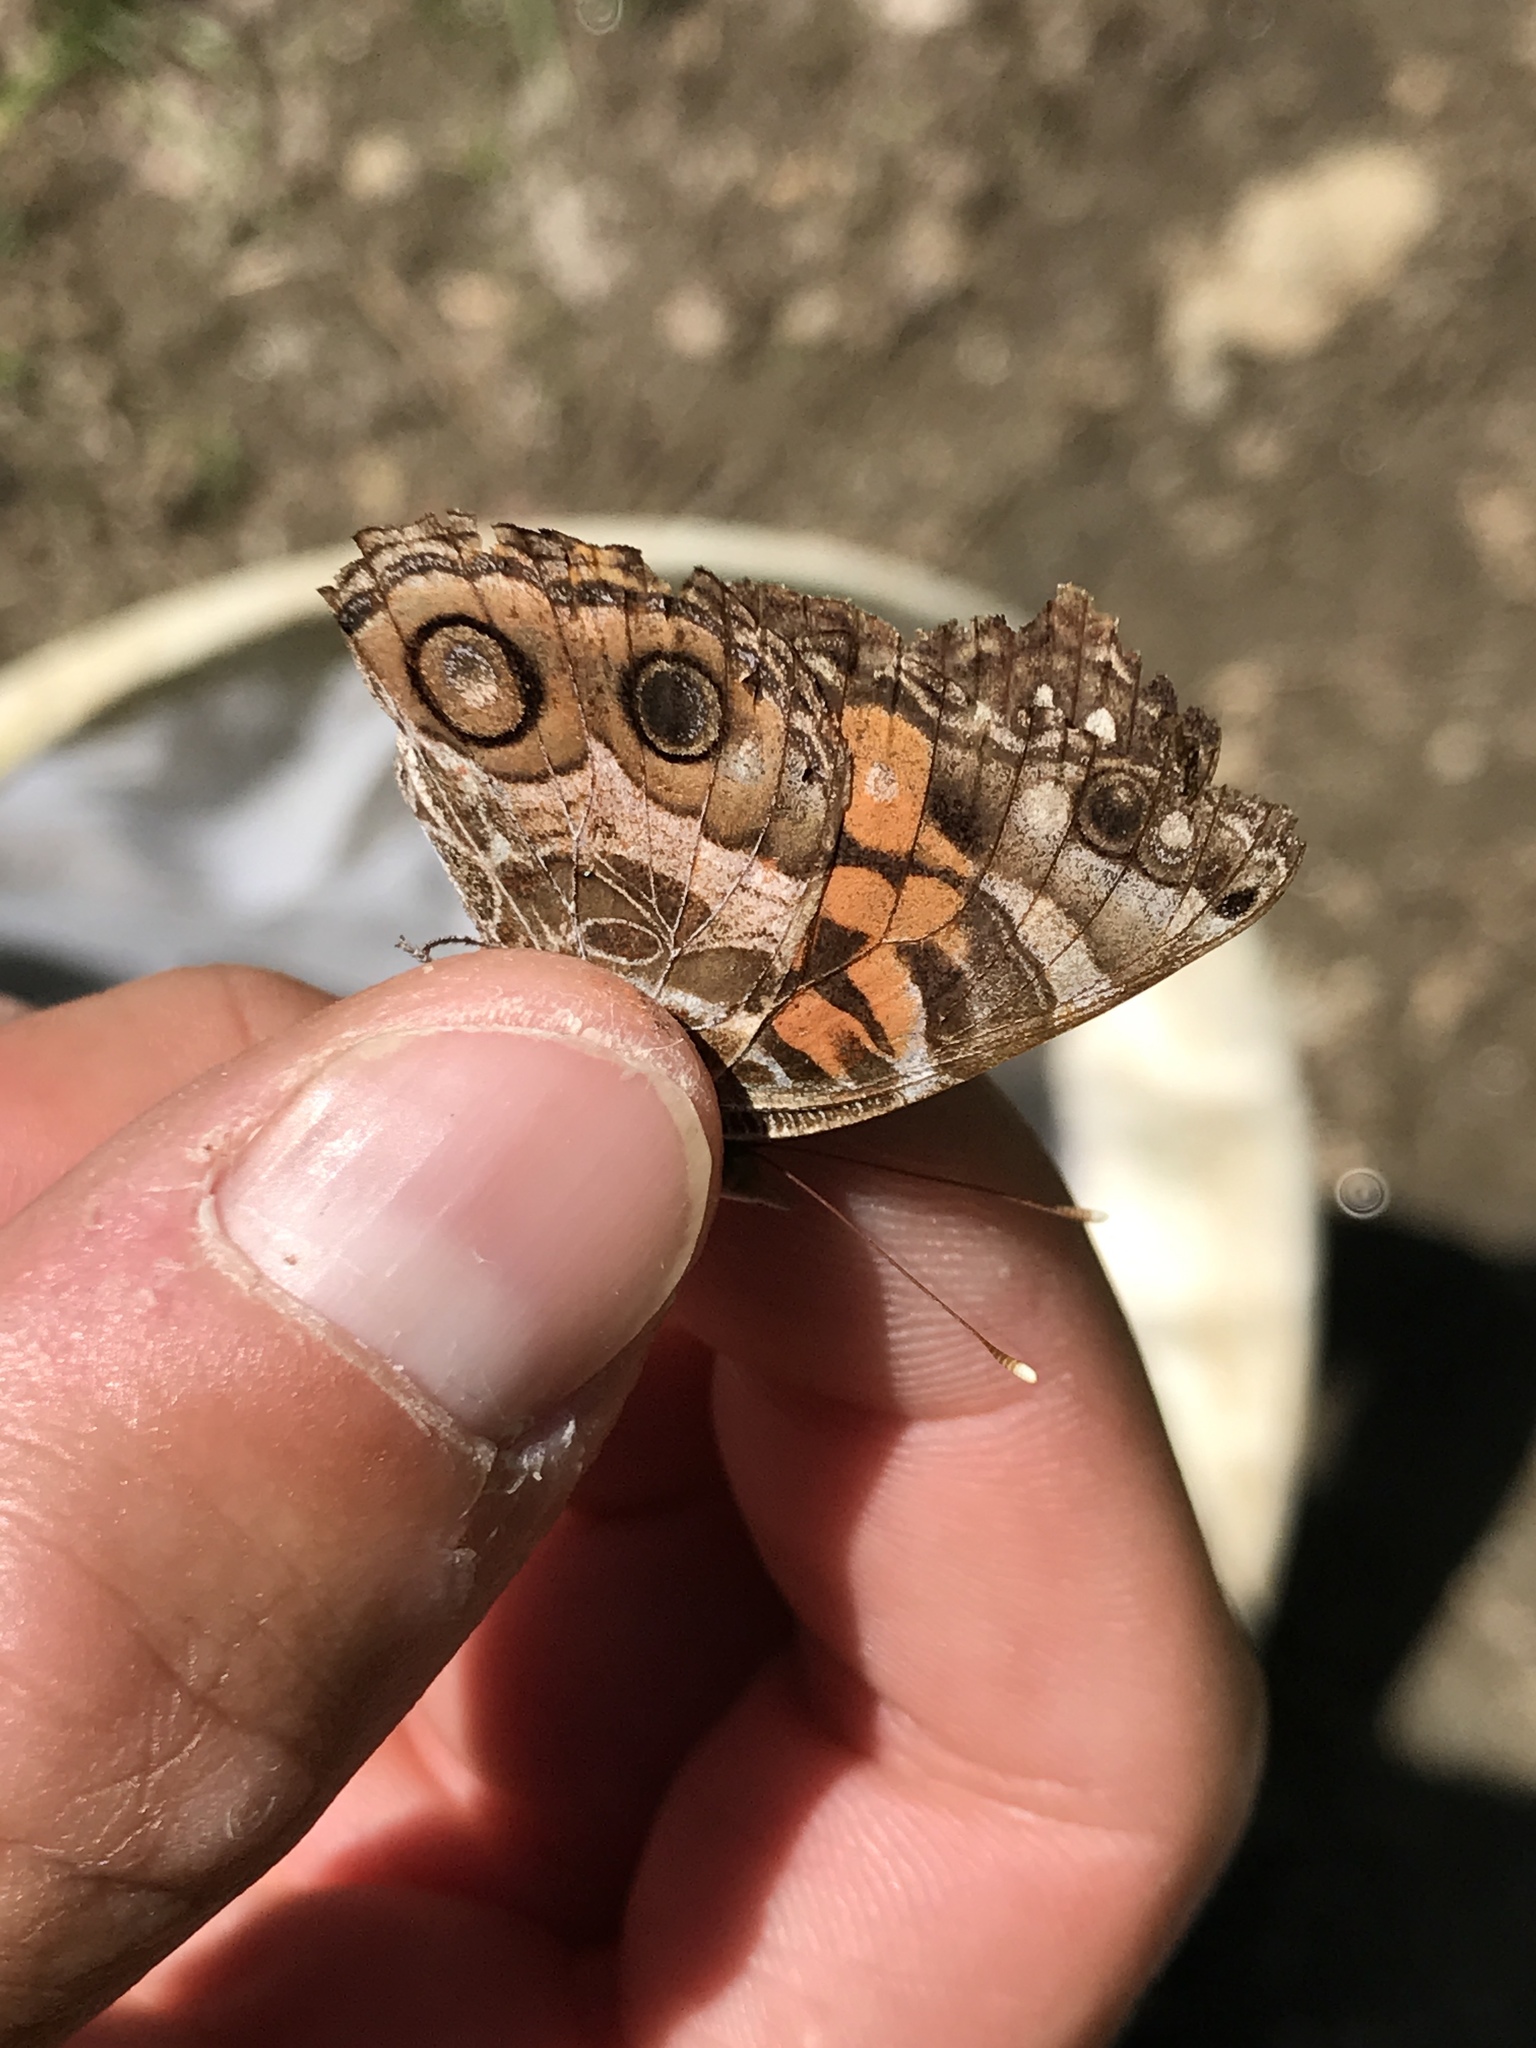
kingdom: Animalia
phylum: Arthropoda
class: Insecta
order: Lepidoptera
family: Nymphalidae
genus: Vanessa
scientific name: Vanessa virginiensis
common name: American lady
